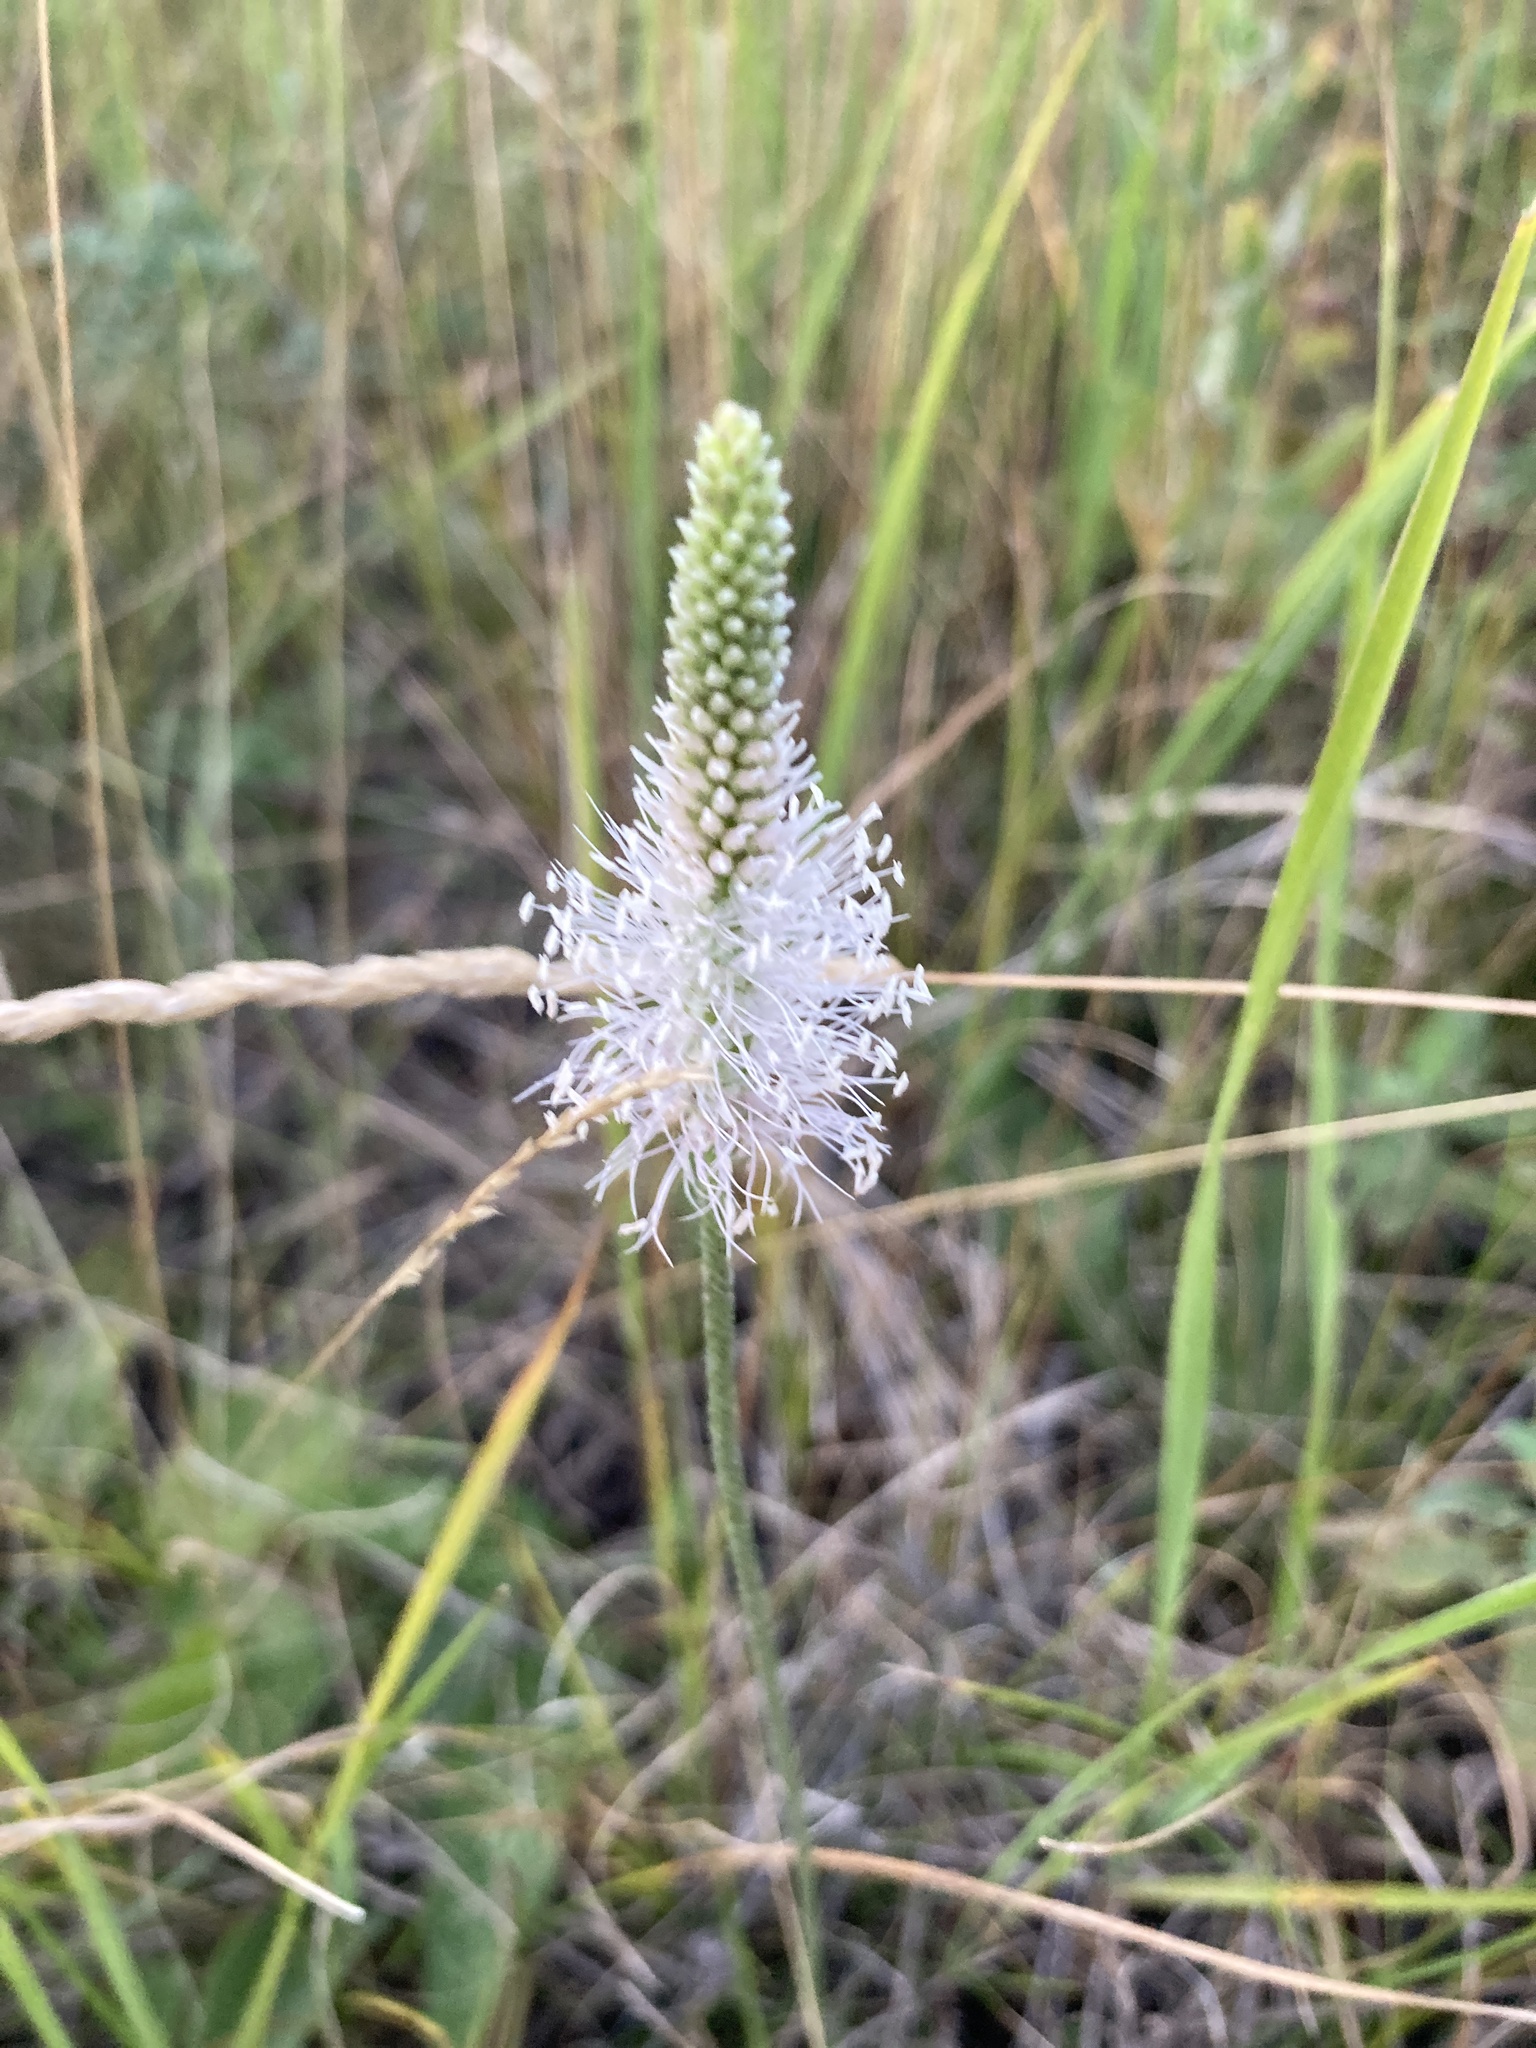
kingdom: Plantae
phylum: Tracheophyta
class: Magnoliopsida
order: Lamiales
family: Plantaginaceae
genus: Plantago
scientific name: Plantago urvillei
